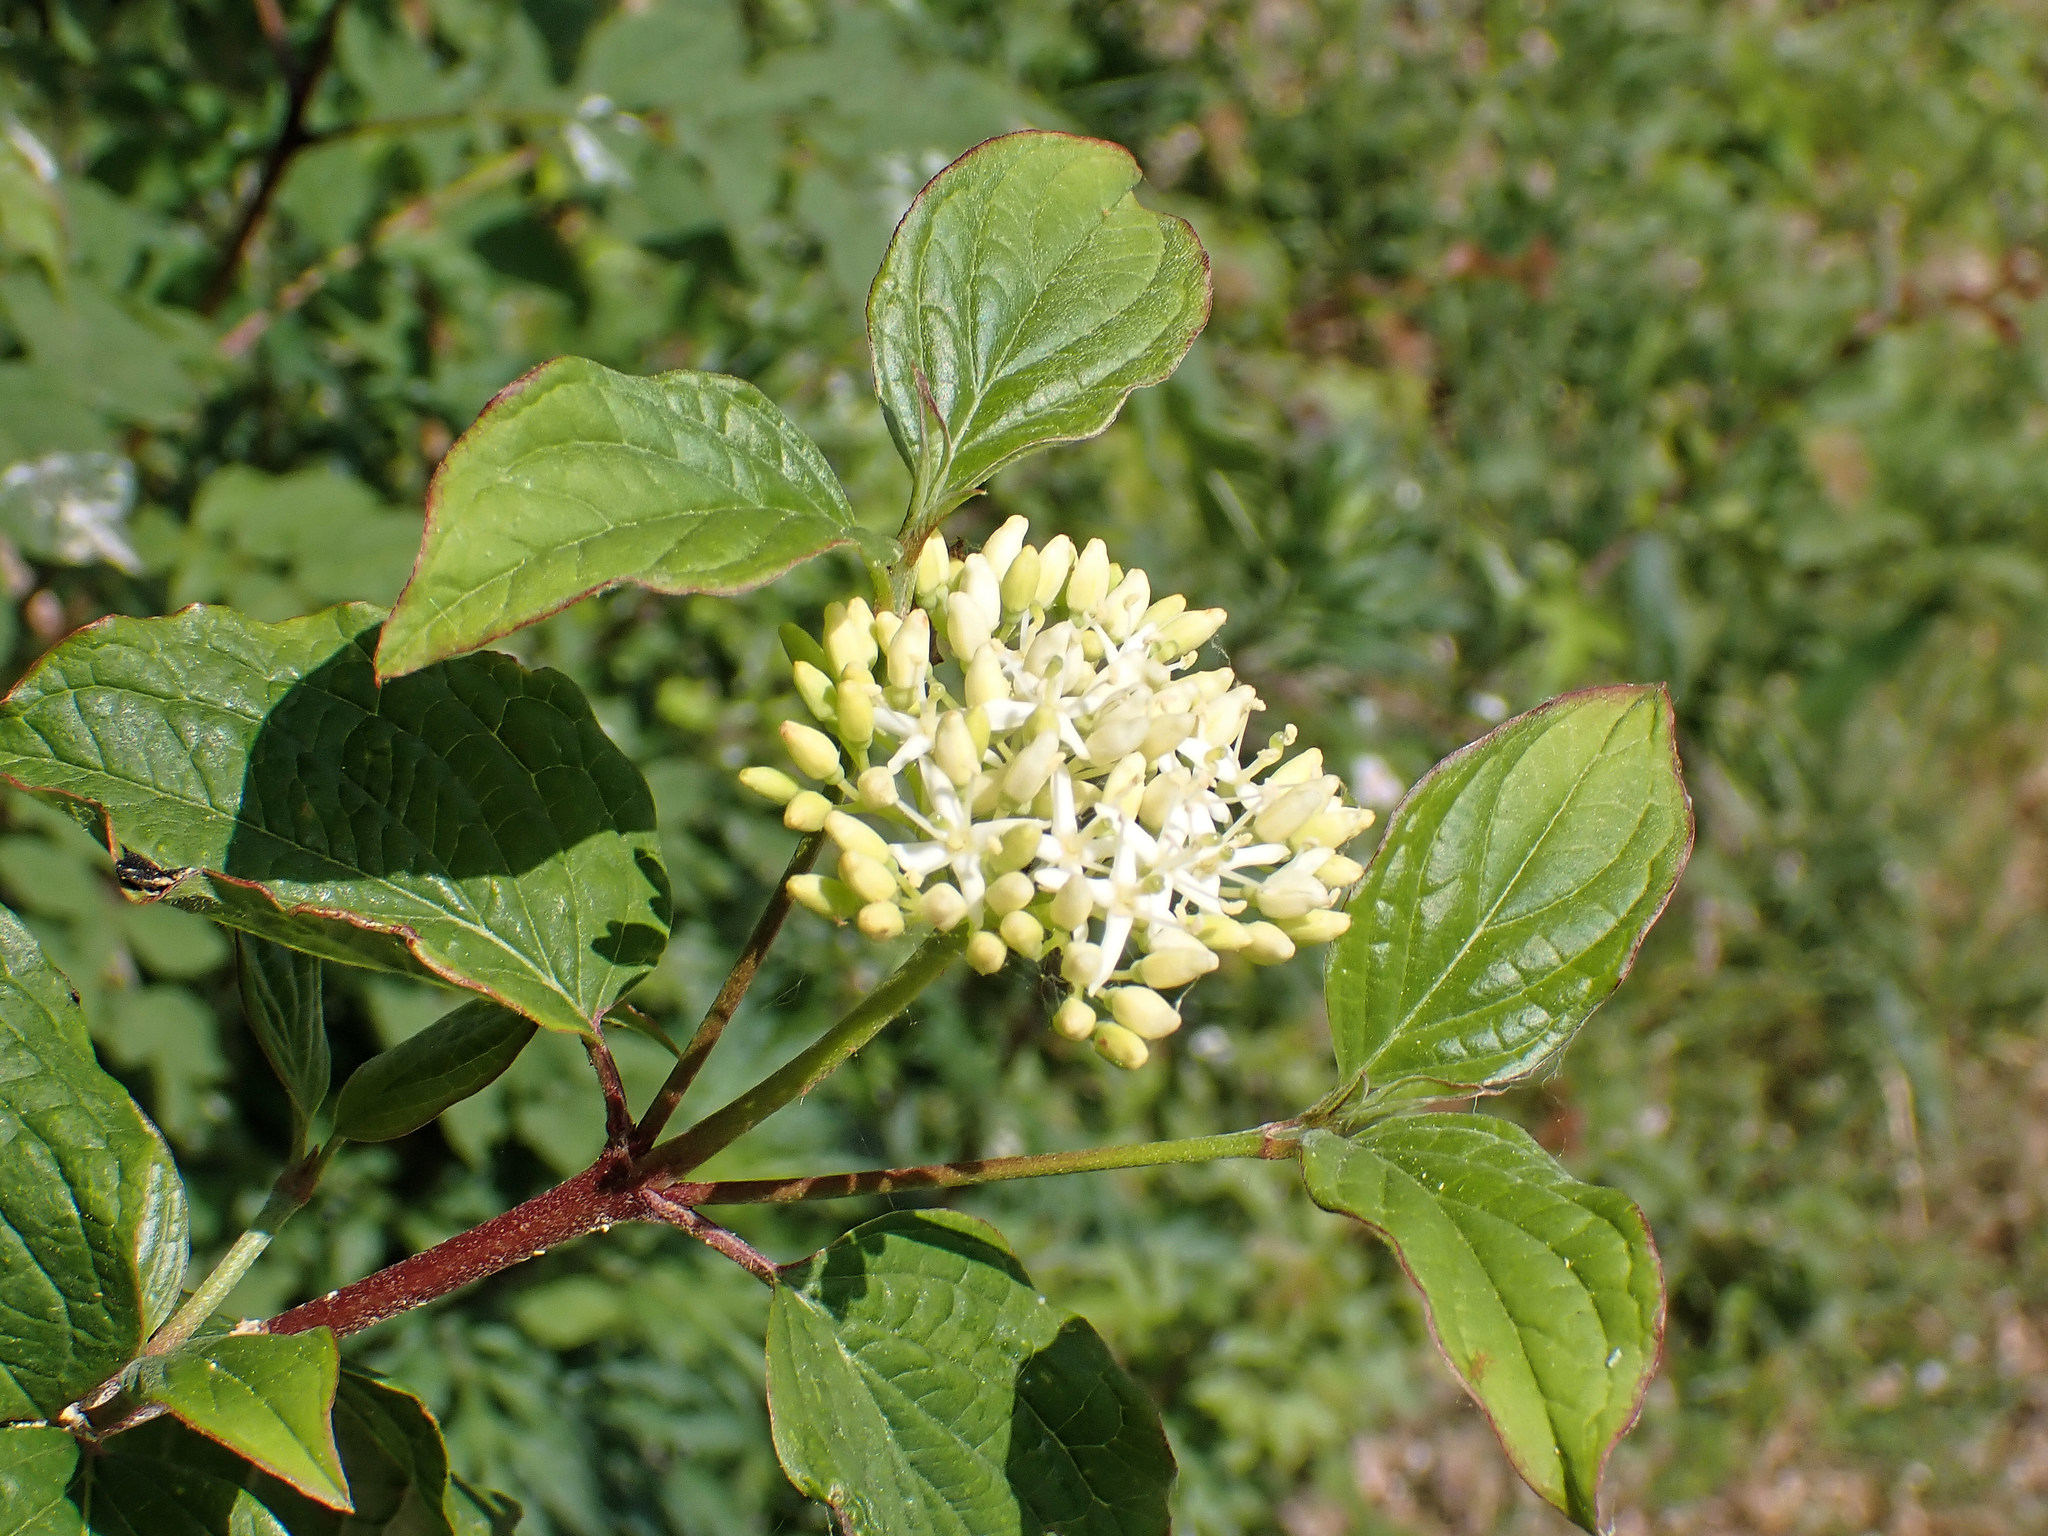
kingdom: Plantae
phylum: Tracheophyta
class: Magnoliopsida
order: Cornales
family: Cornaceae
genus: Cornus
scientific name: Cornus sanguinea
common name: Dogwood
